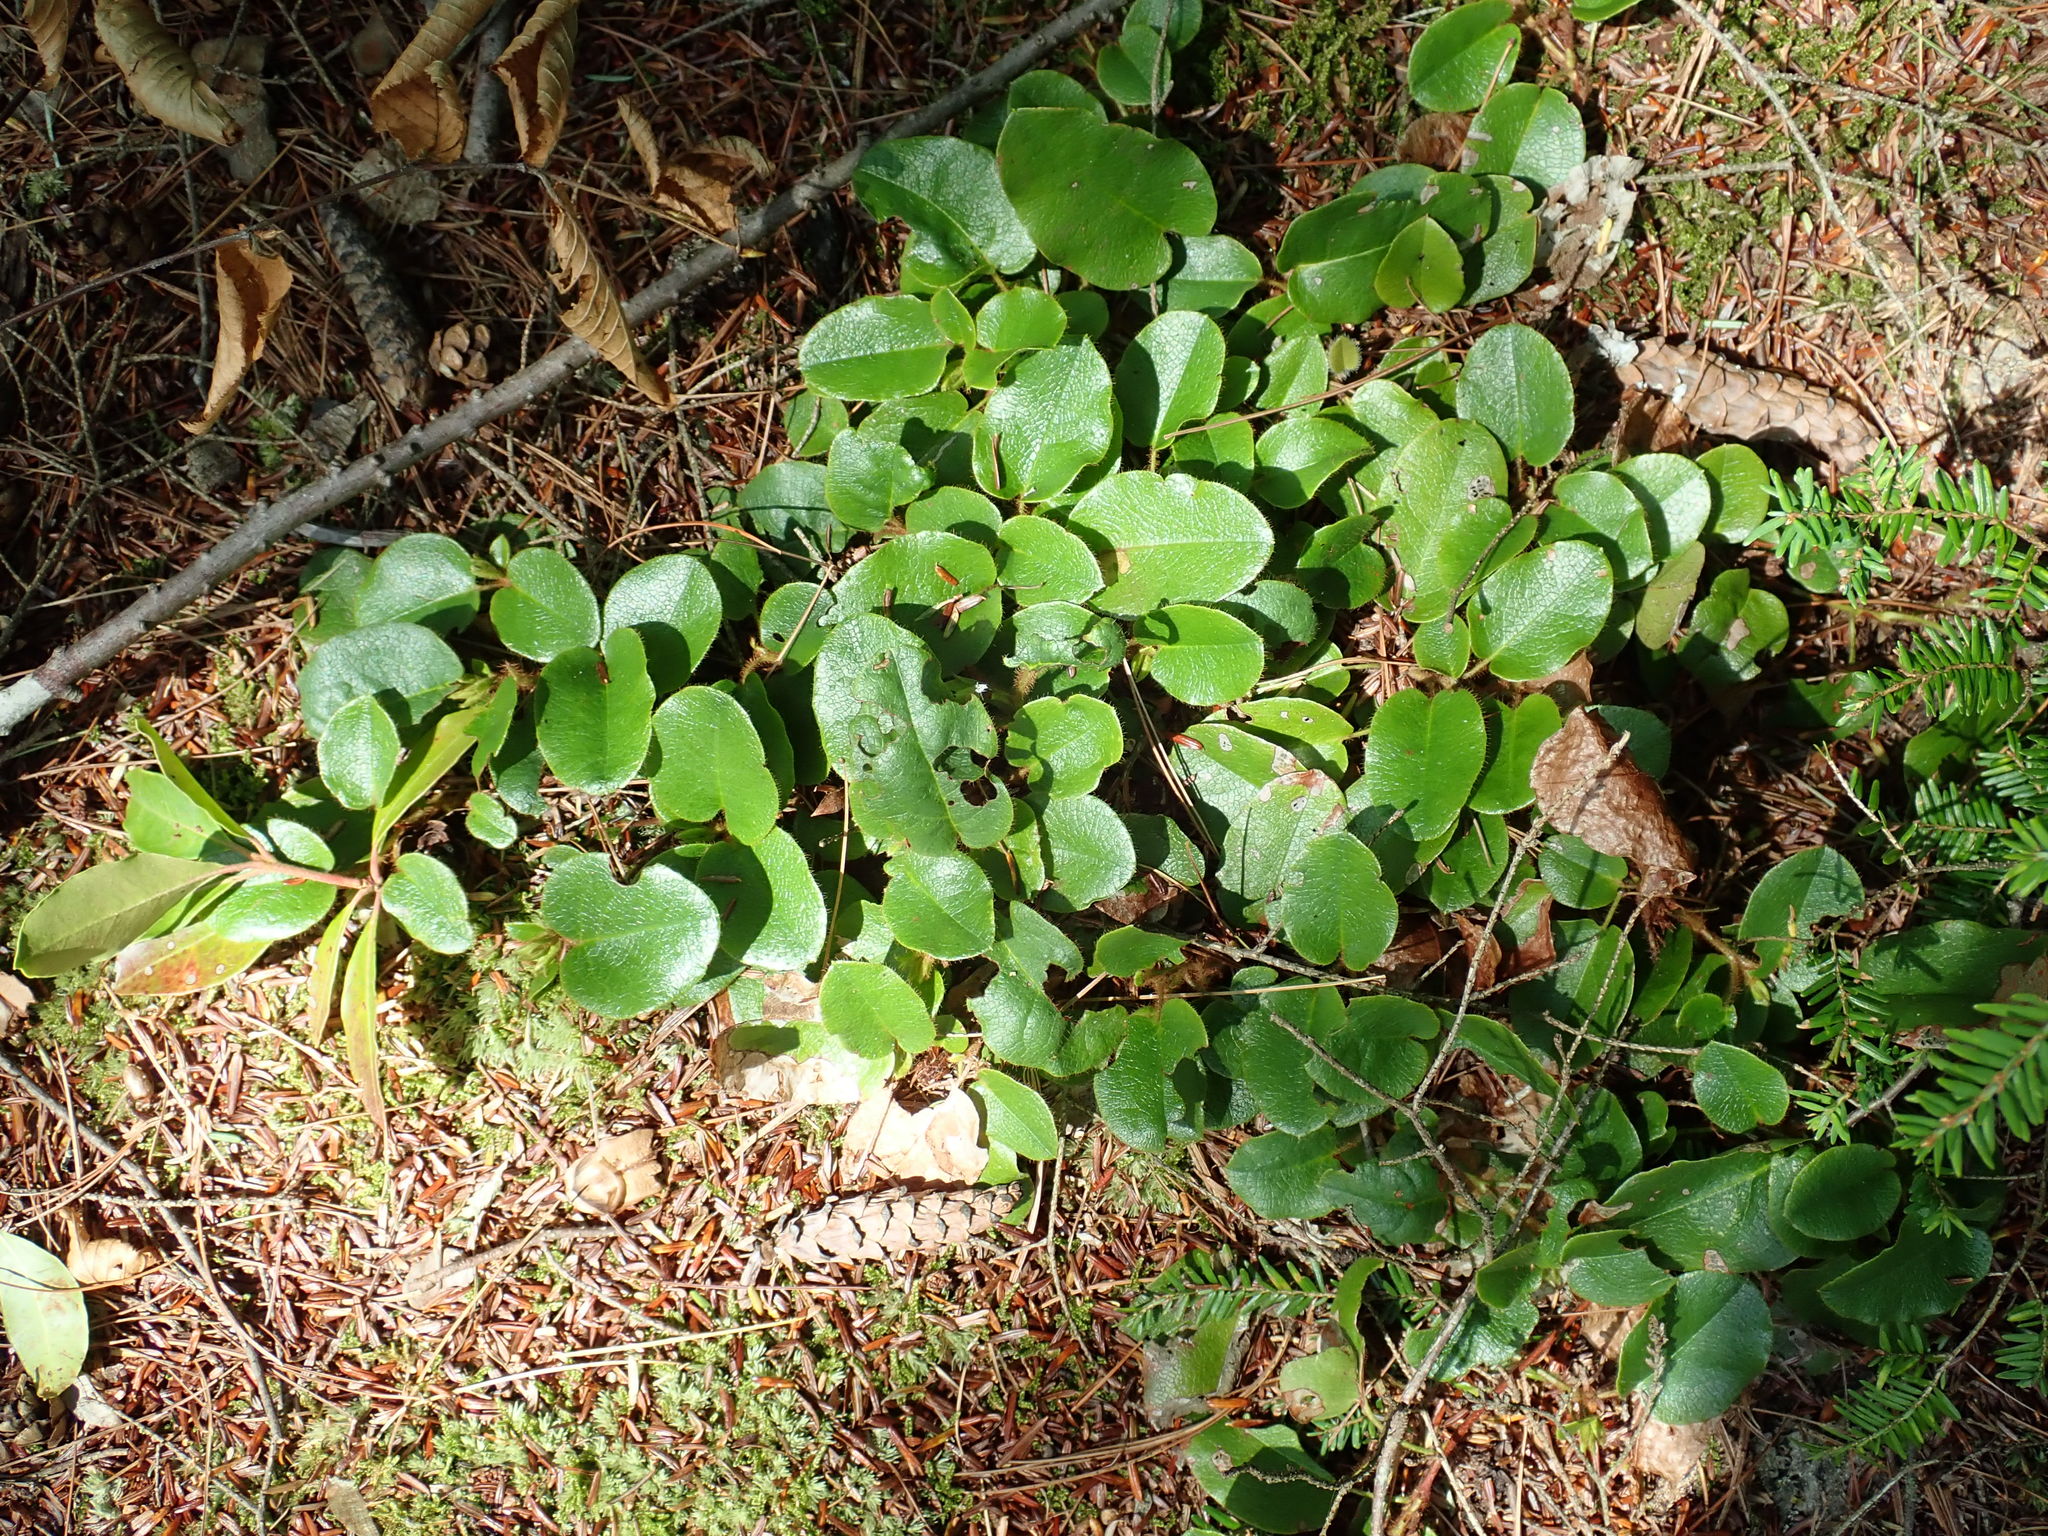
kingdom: Plantae
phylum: Tracheophyta
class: Magnoliopsida
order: Ericales
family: Ericaceae
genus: Epigaea
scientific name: Epigaea repens
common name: Gravelroot
